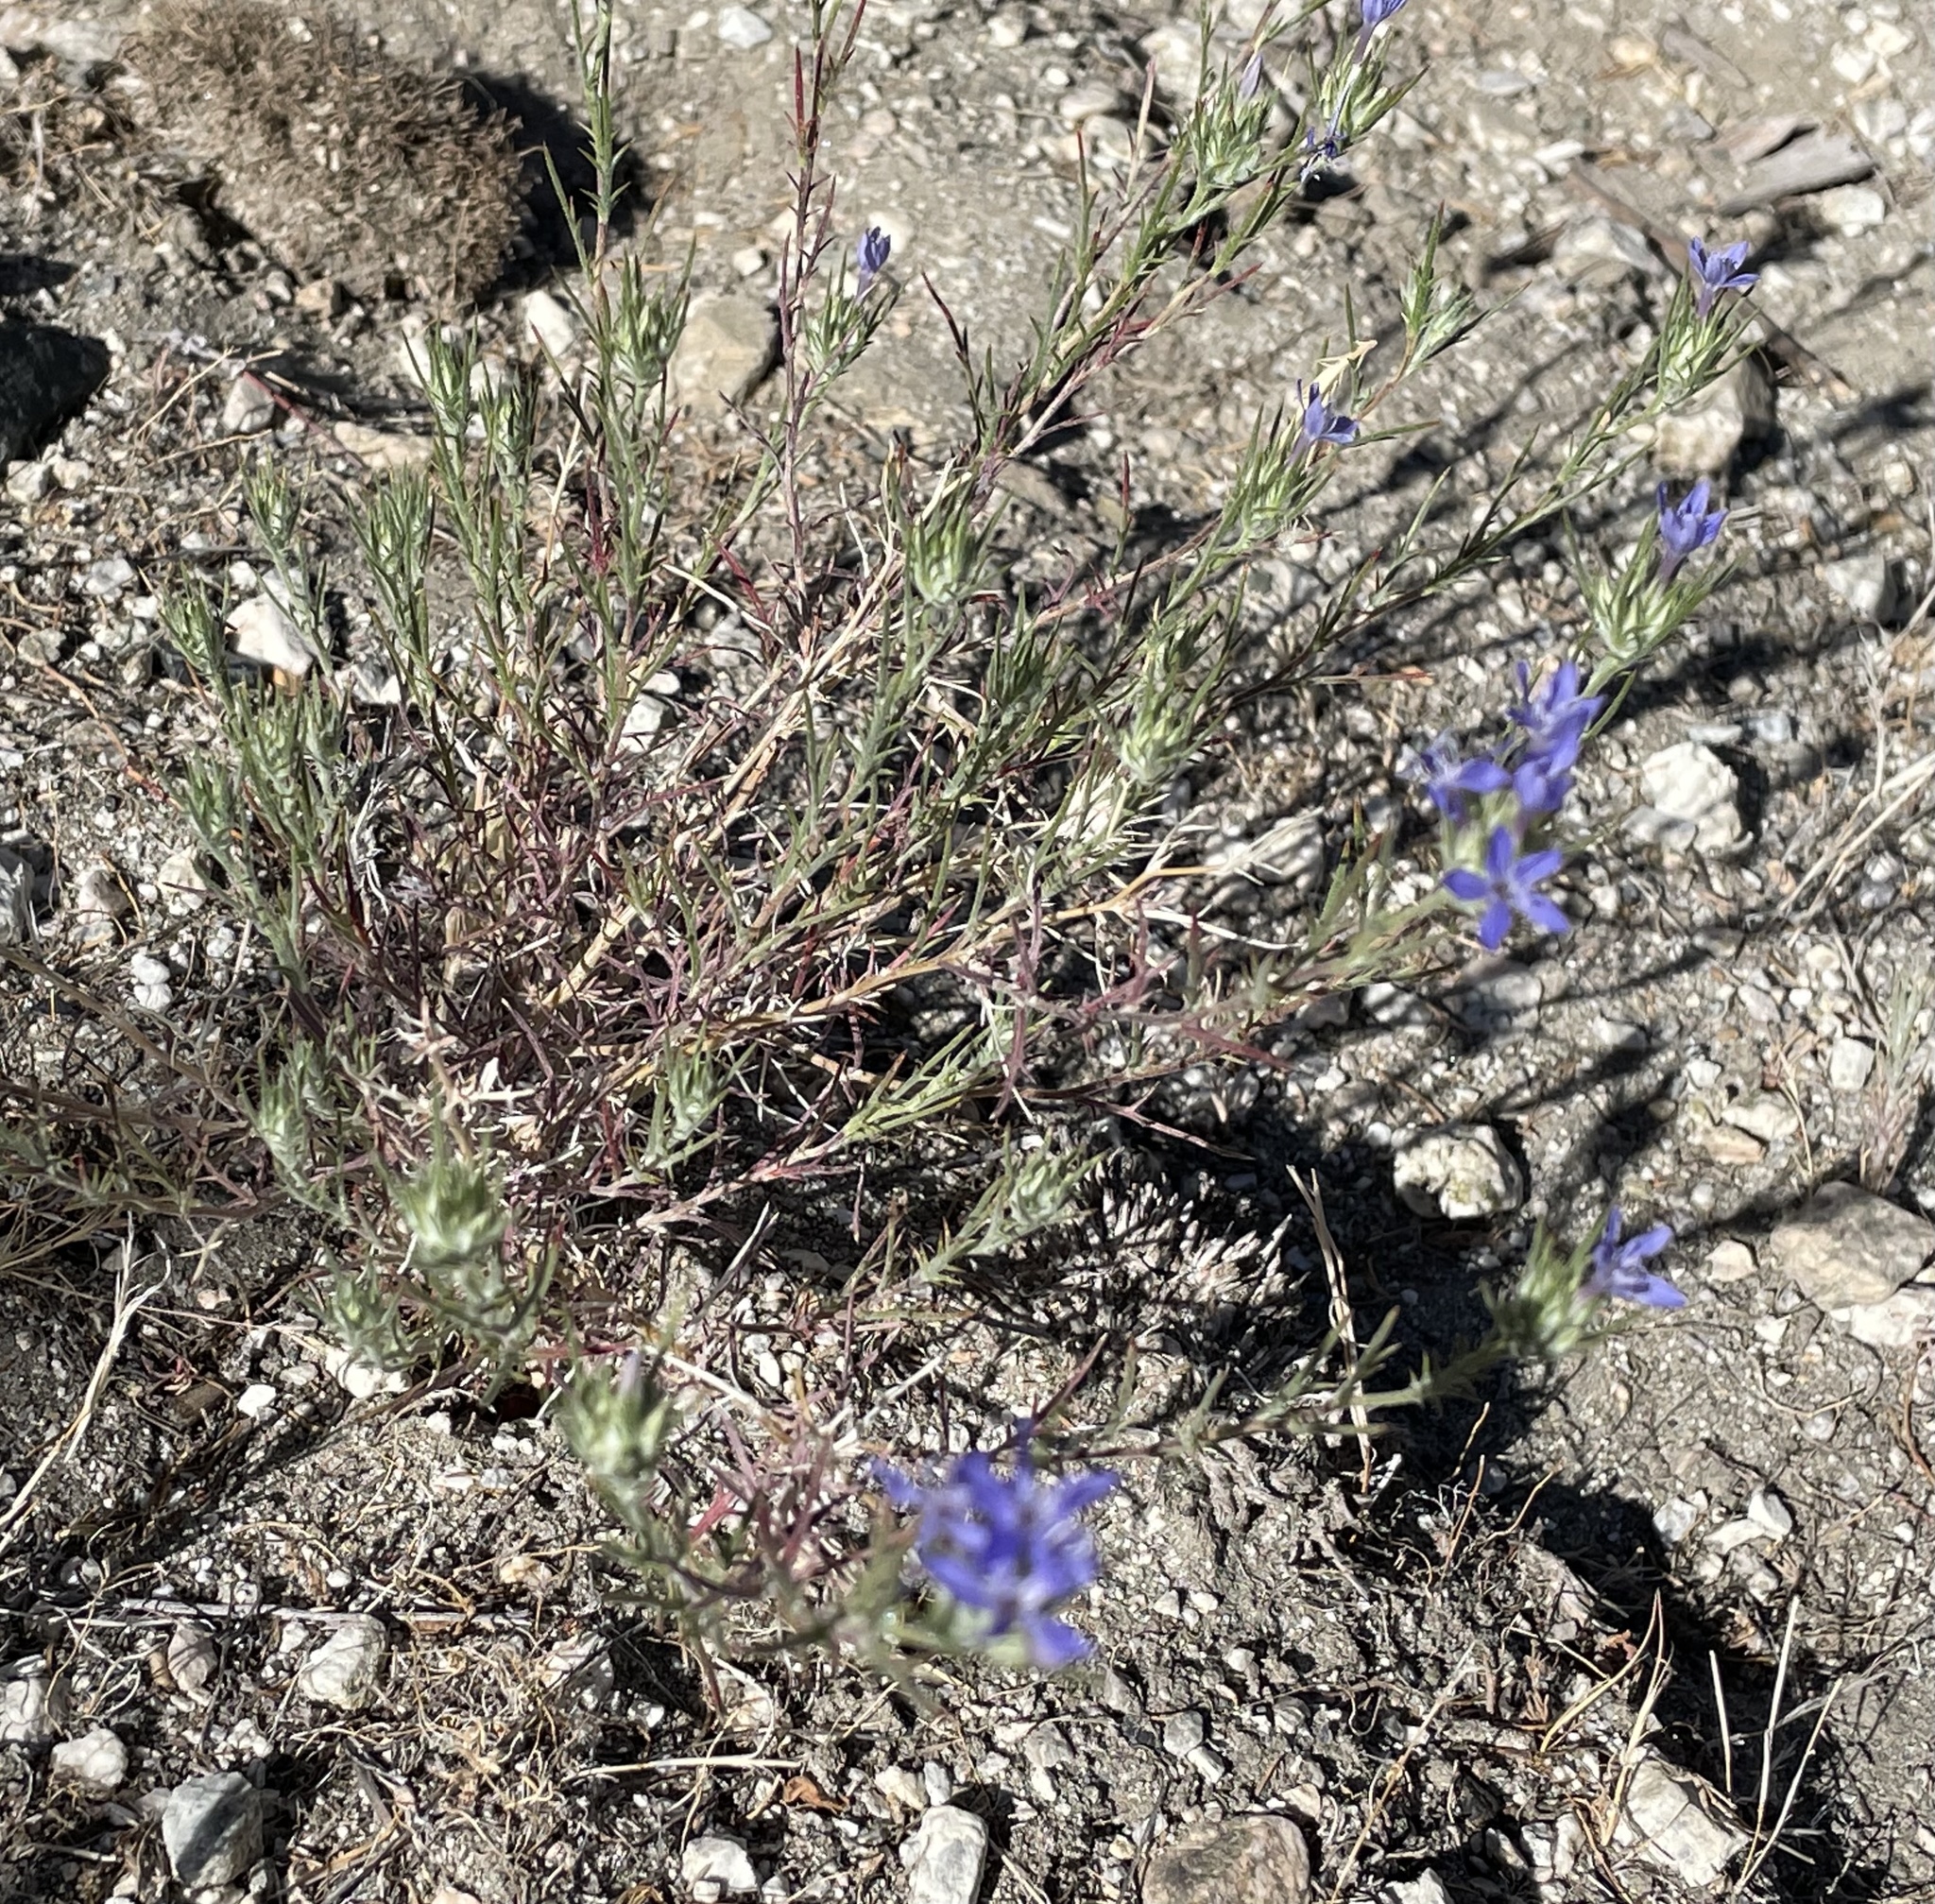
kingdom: Plantae
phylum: Tracheophyta
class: Magnoliopsida
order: Ericales
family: Polemoniaceae
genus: Eriastrum
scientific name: Eriastrum densifolium
